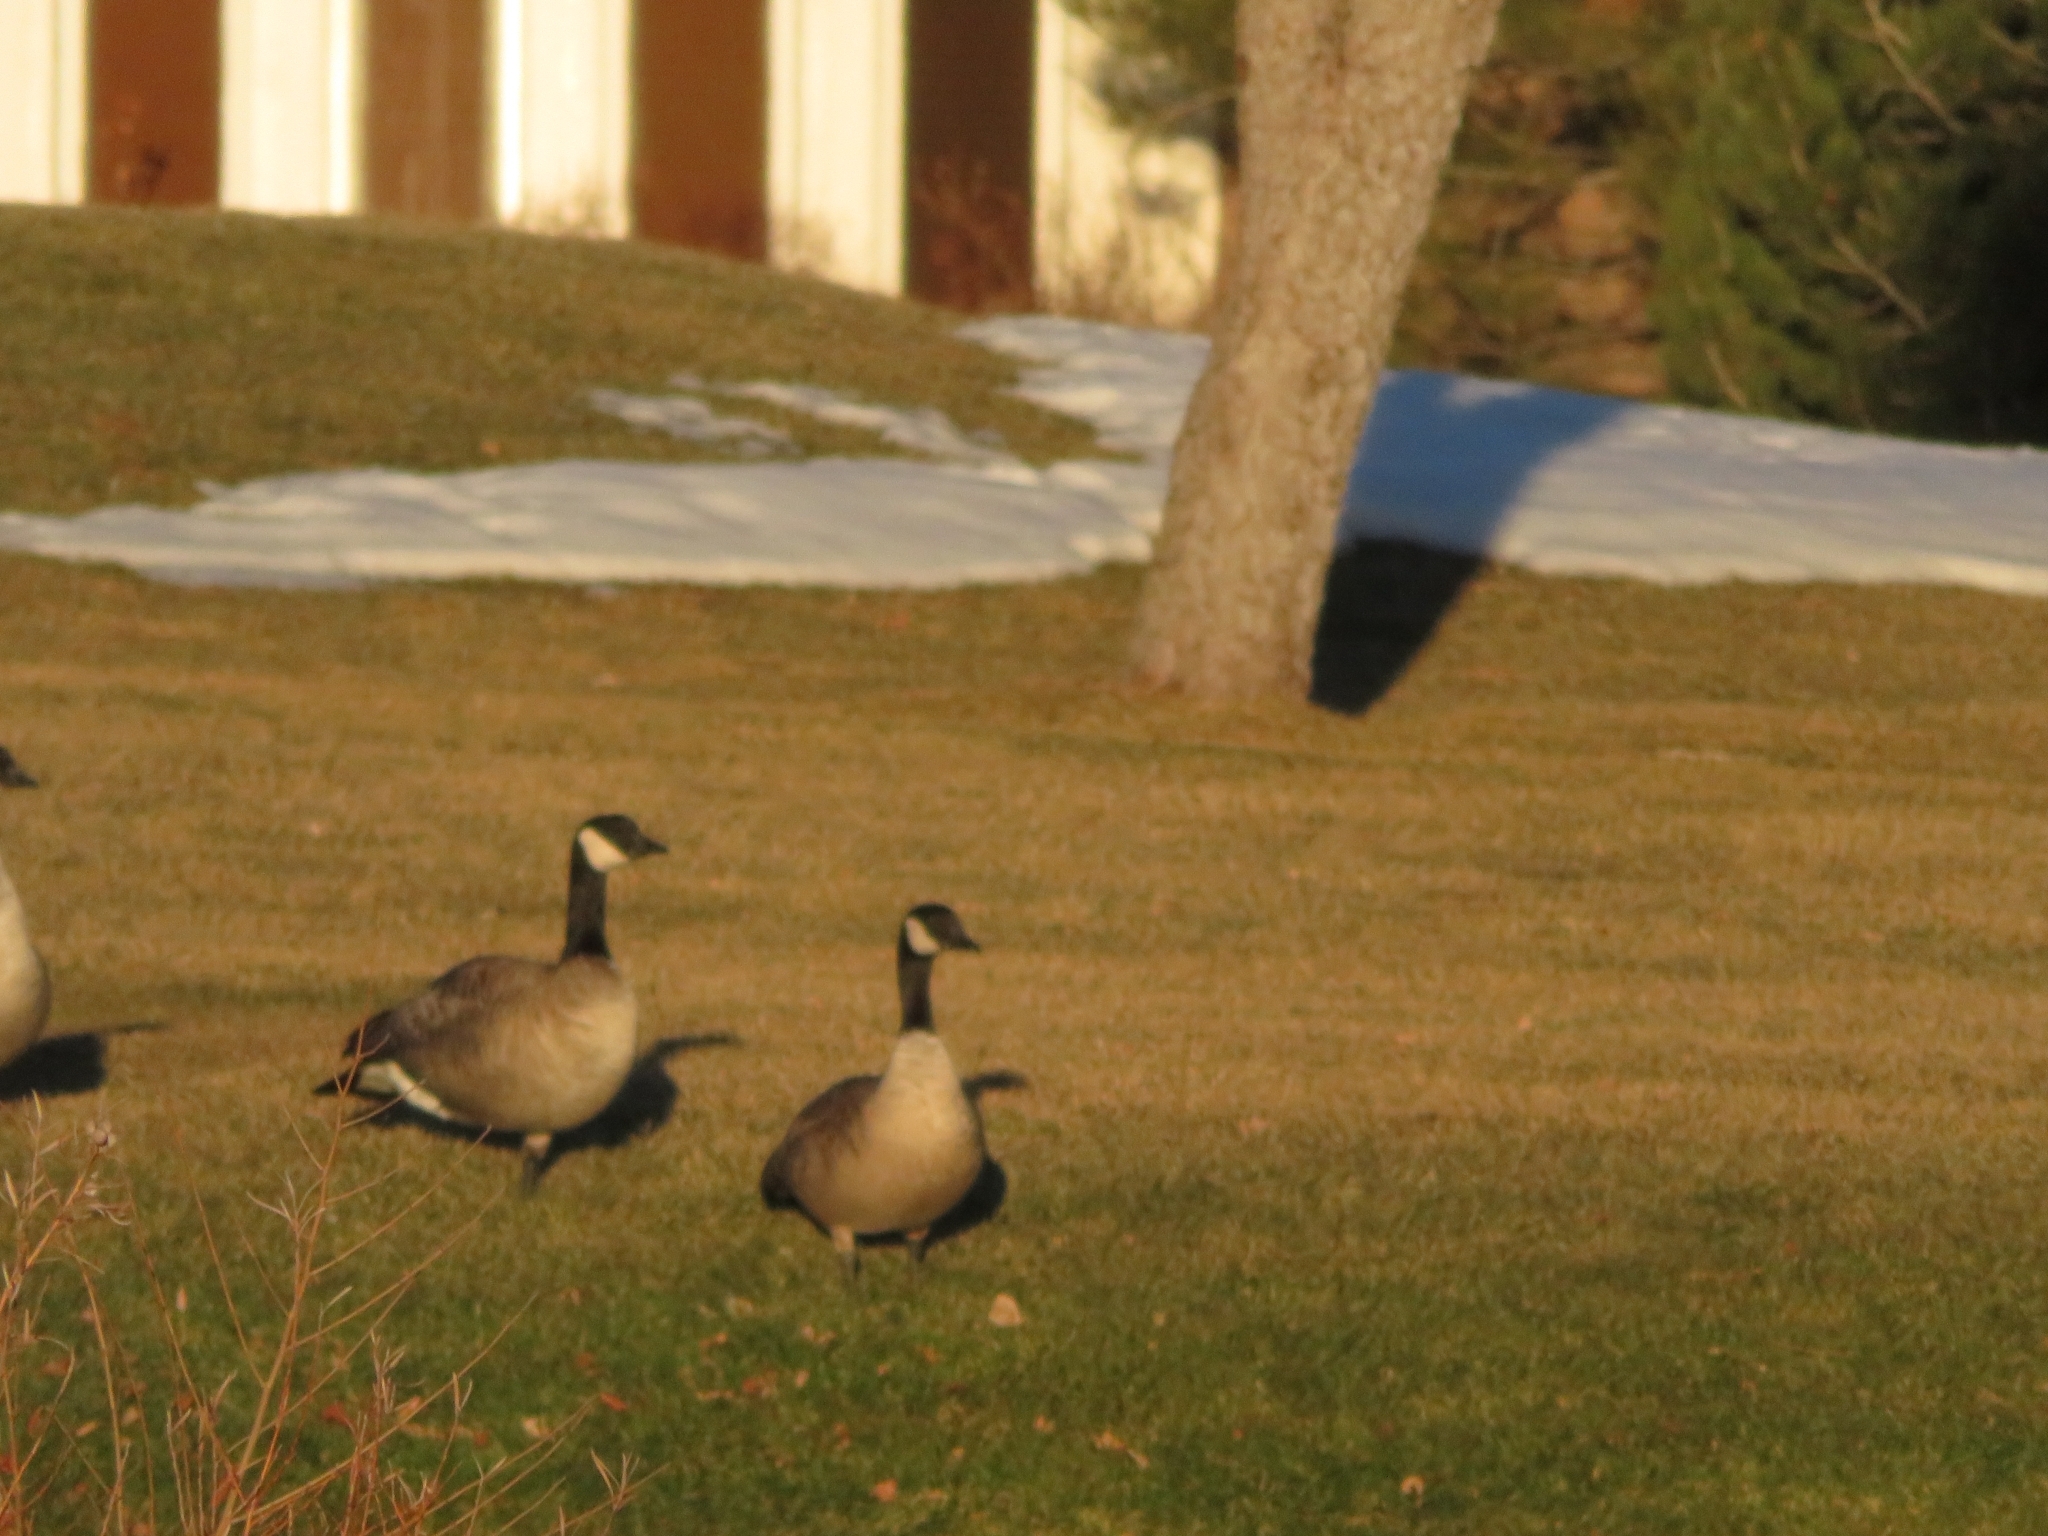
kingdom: Animalia
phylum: Chordata
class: Aves
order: Anseriformes
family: Anatidae
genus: Branta
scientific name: Branta canadensis
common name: Canada goose
